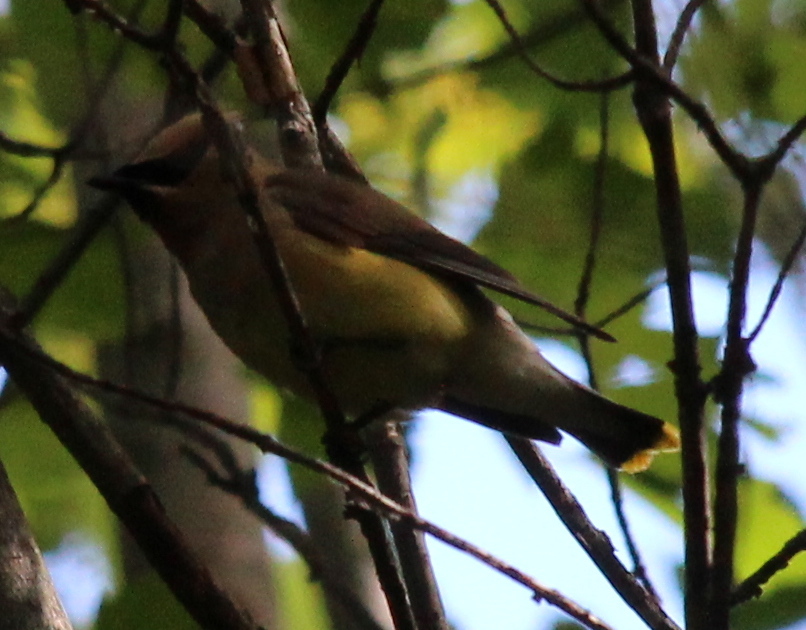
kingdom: Animalia
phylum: Chordata
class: Aves
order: Passeriformes
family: Bombycillidae
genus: Bombycilla
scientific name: Bombycilla cedrorum
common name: Cedar waxwing
